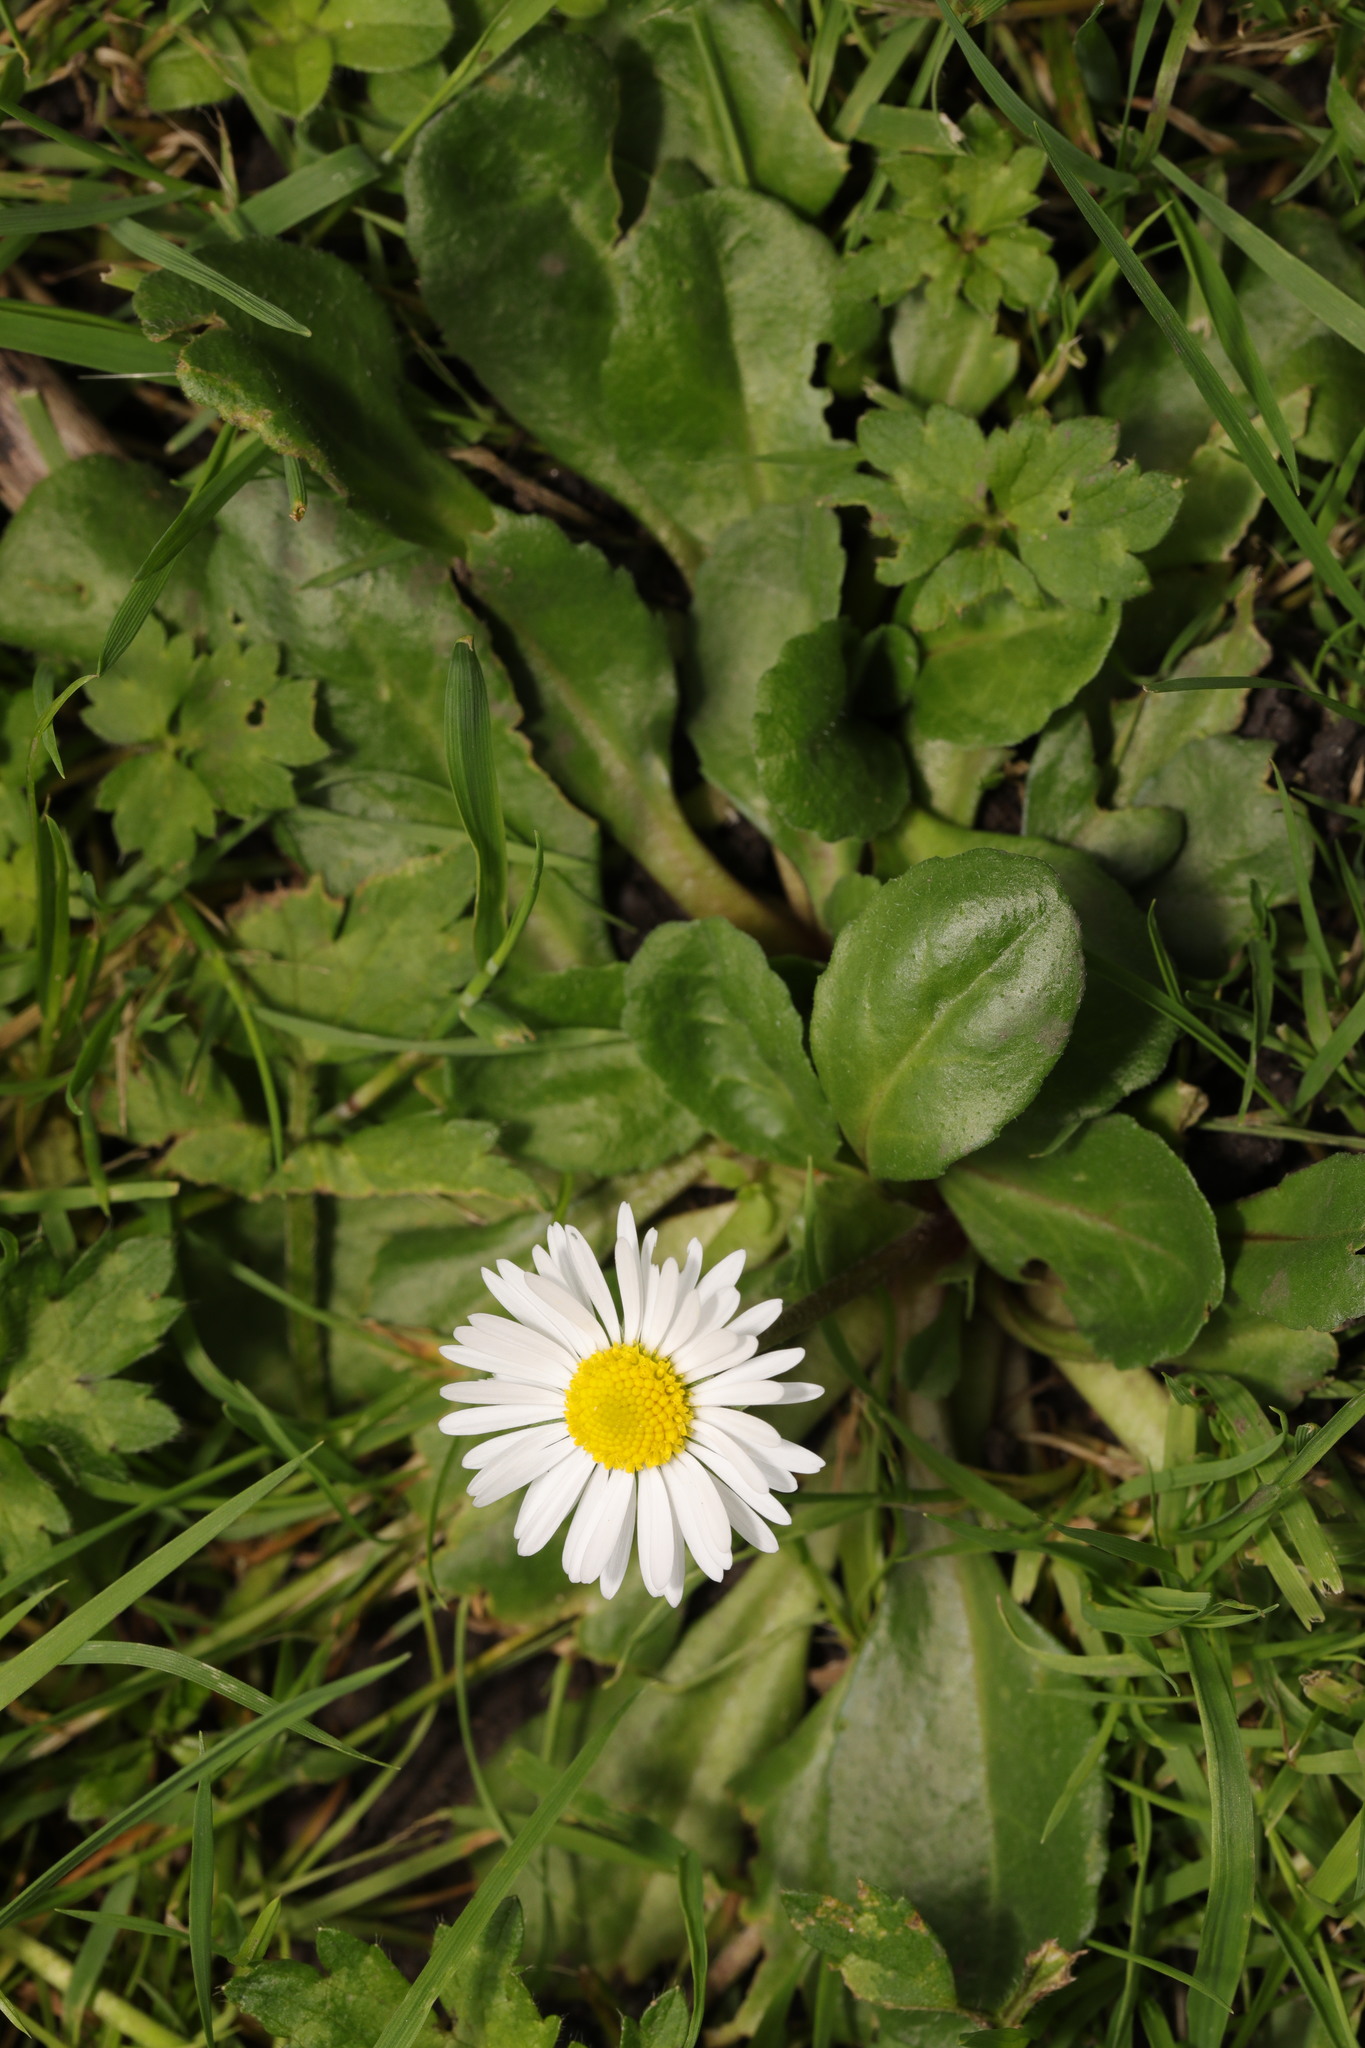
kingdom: Plantae
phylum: Tracheophyta
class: Magnoliopsida
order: Asterales
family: Asteraceae
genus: Bellis
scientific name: Bellis perennis
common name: Lawndaisy
